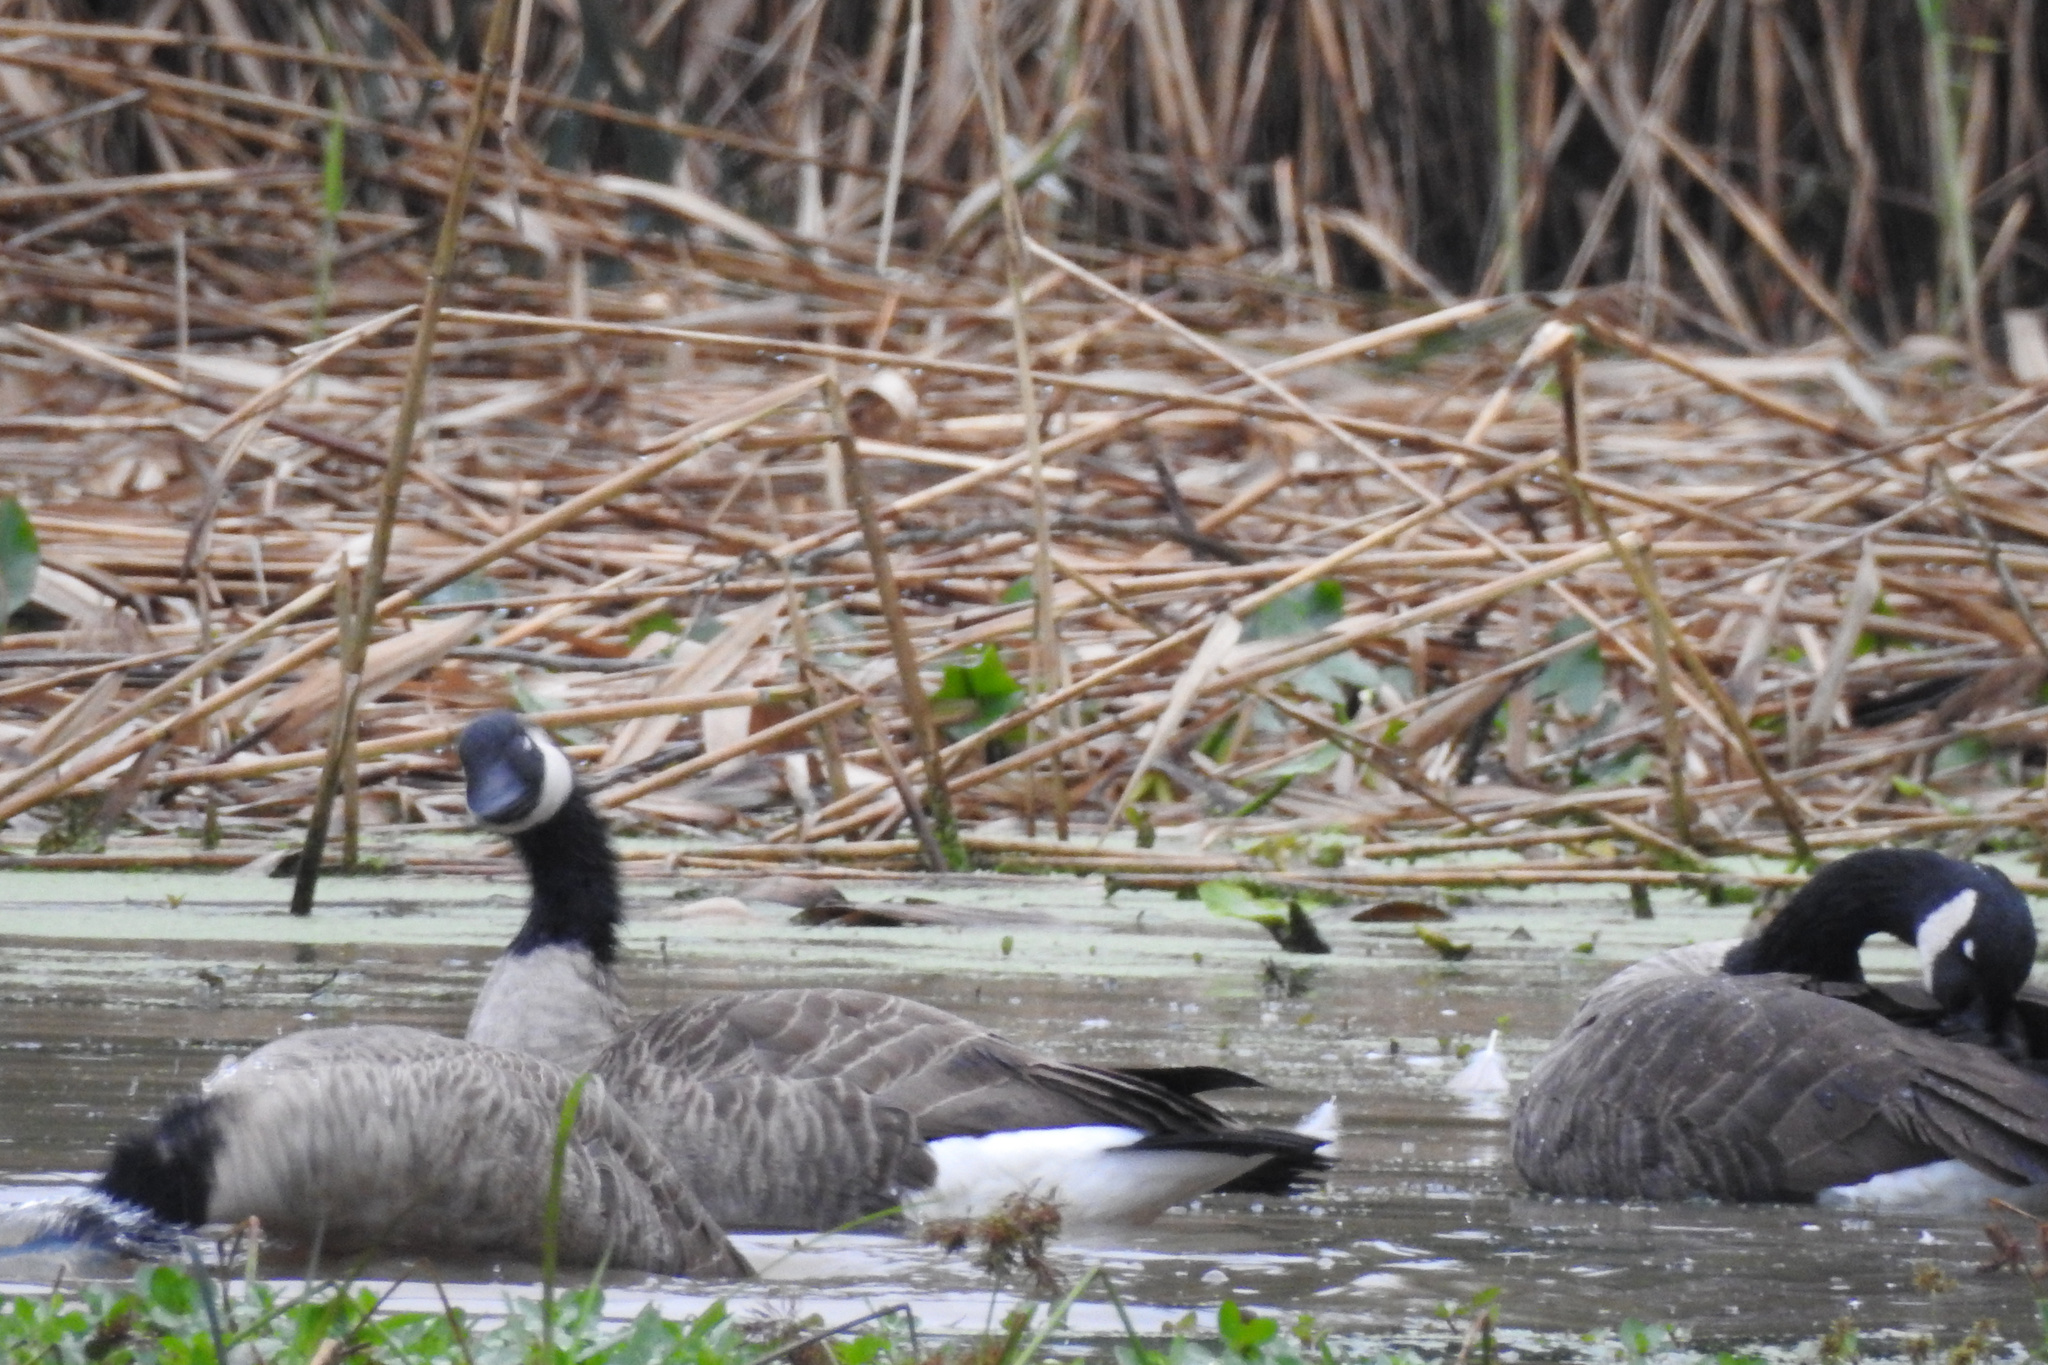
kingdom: Animalia
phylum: Chordata
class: Aves
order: Anseriformes
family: Anatidae
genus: Branta
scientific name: Branta canadensis
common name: Canada goose
